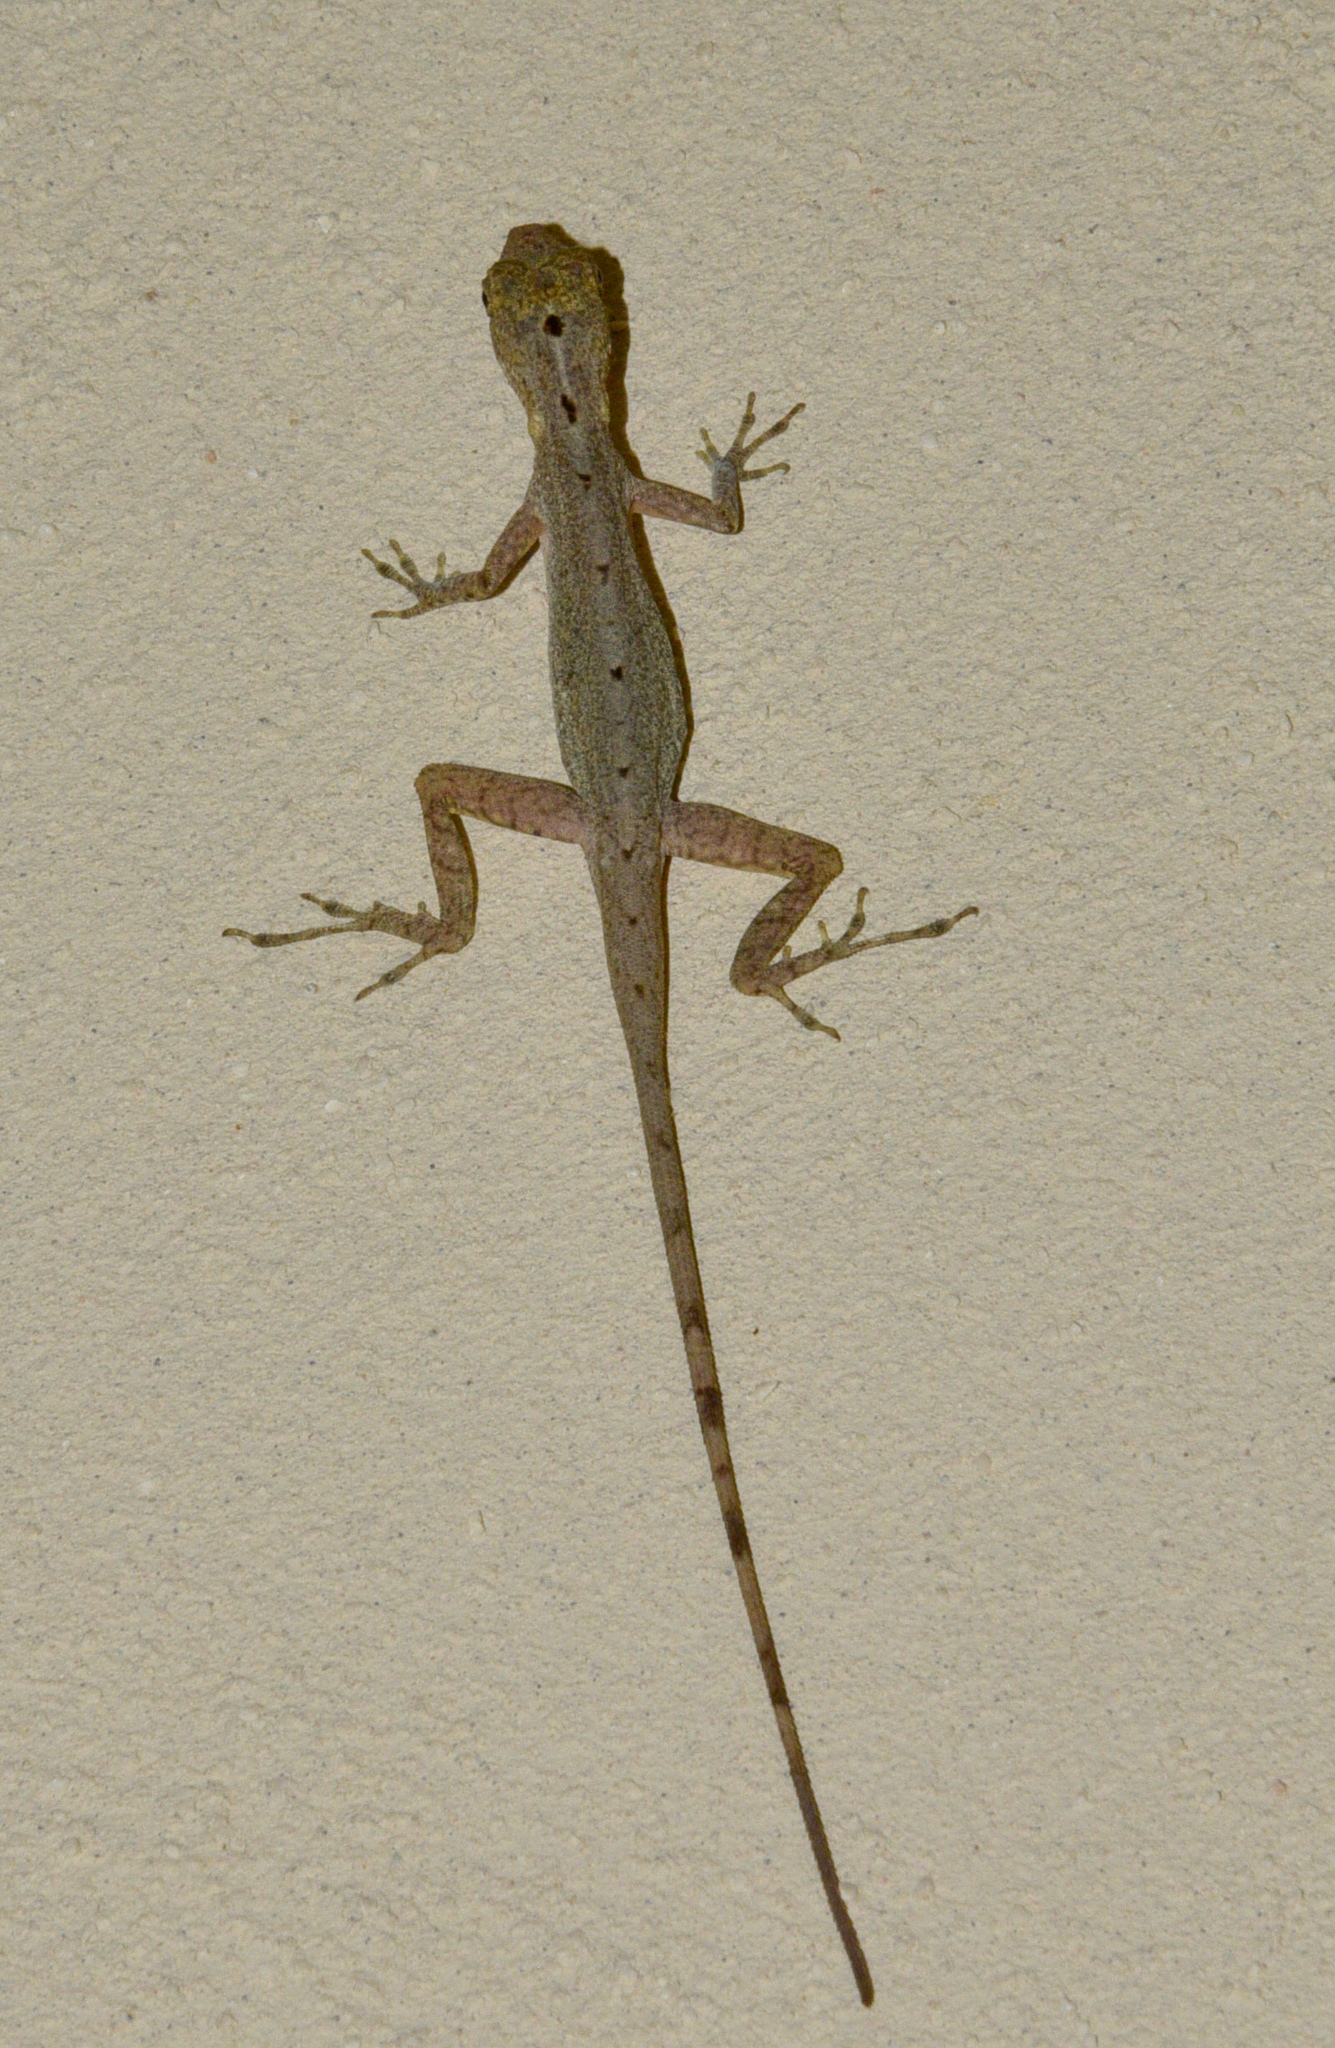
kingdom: Animalia
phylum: Chordata
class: Squamata
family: Dactyloidae
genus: Anolis
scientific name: Anolis limifrons
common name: Border anole
